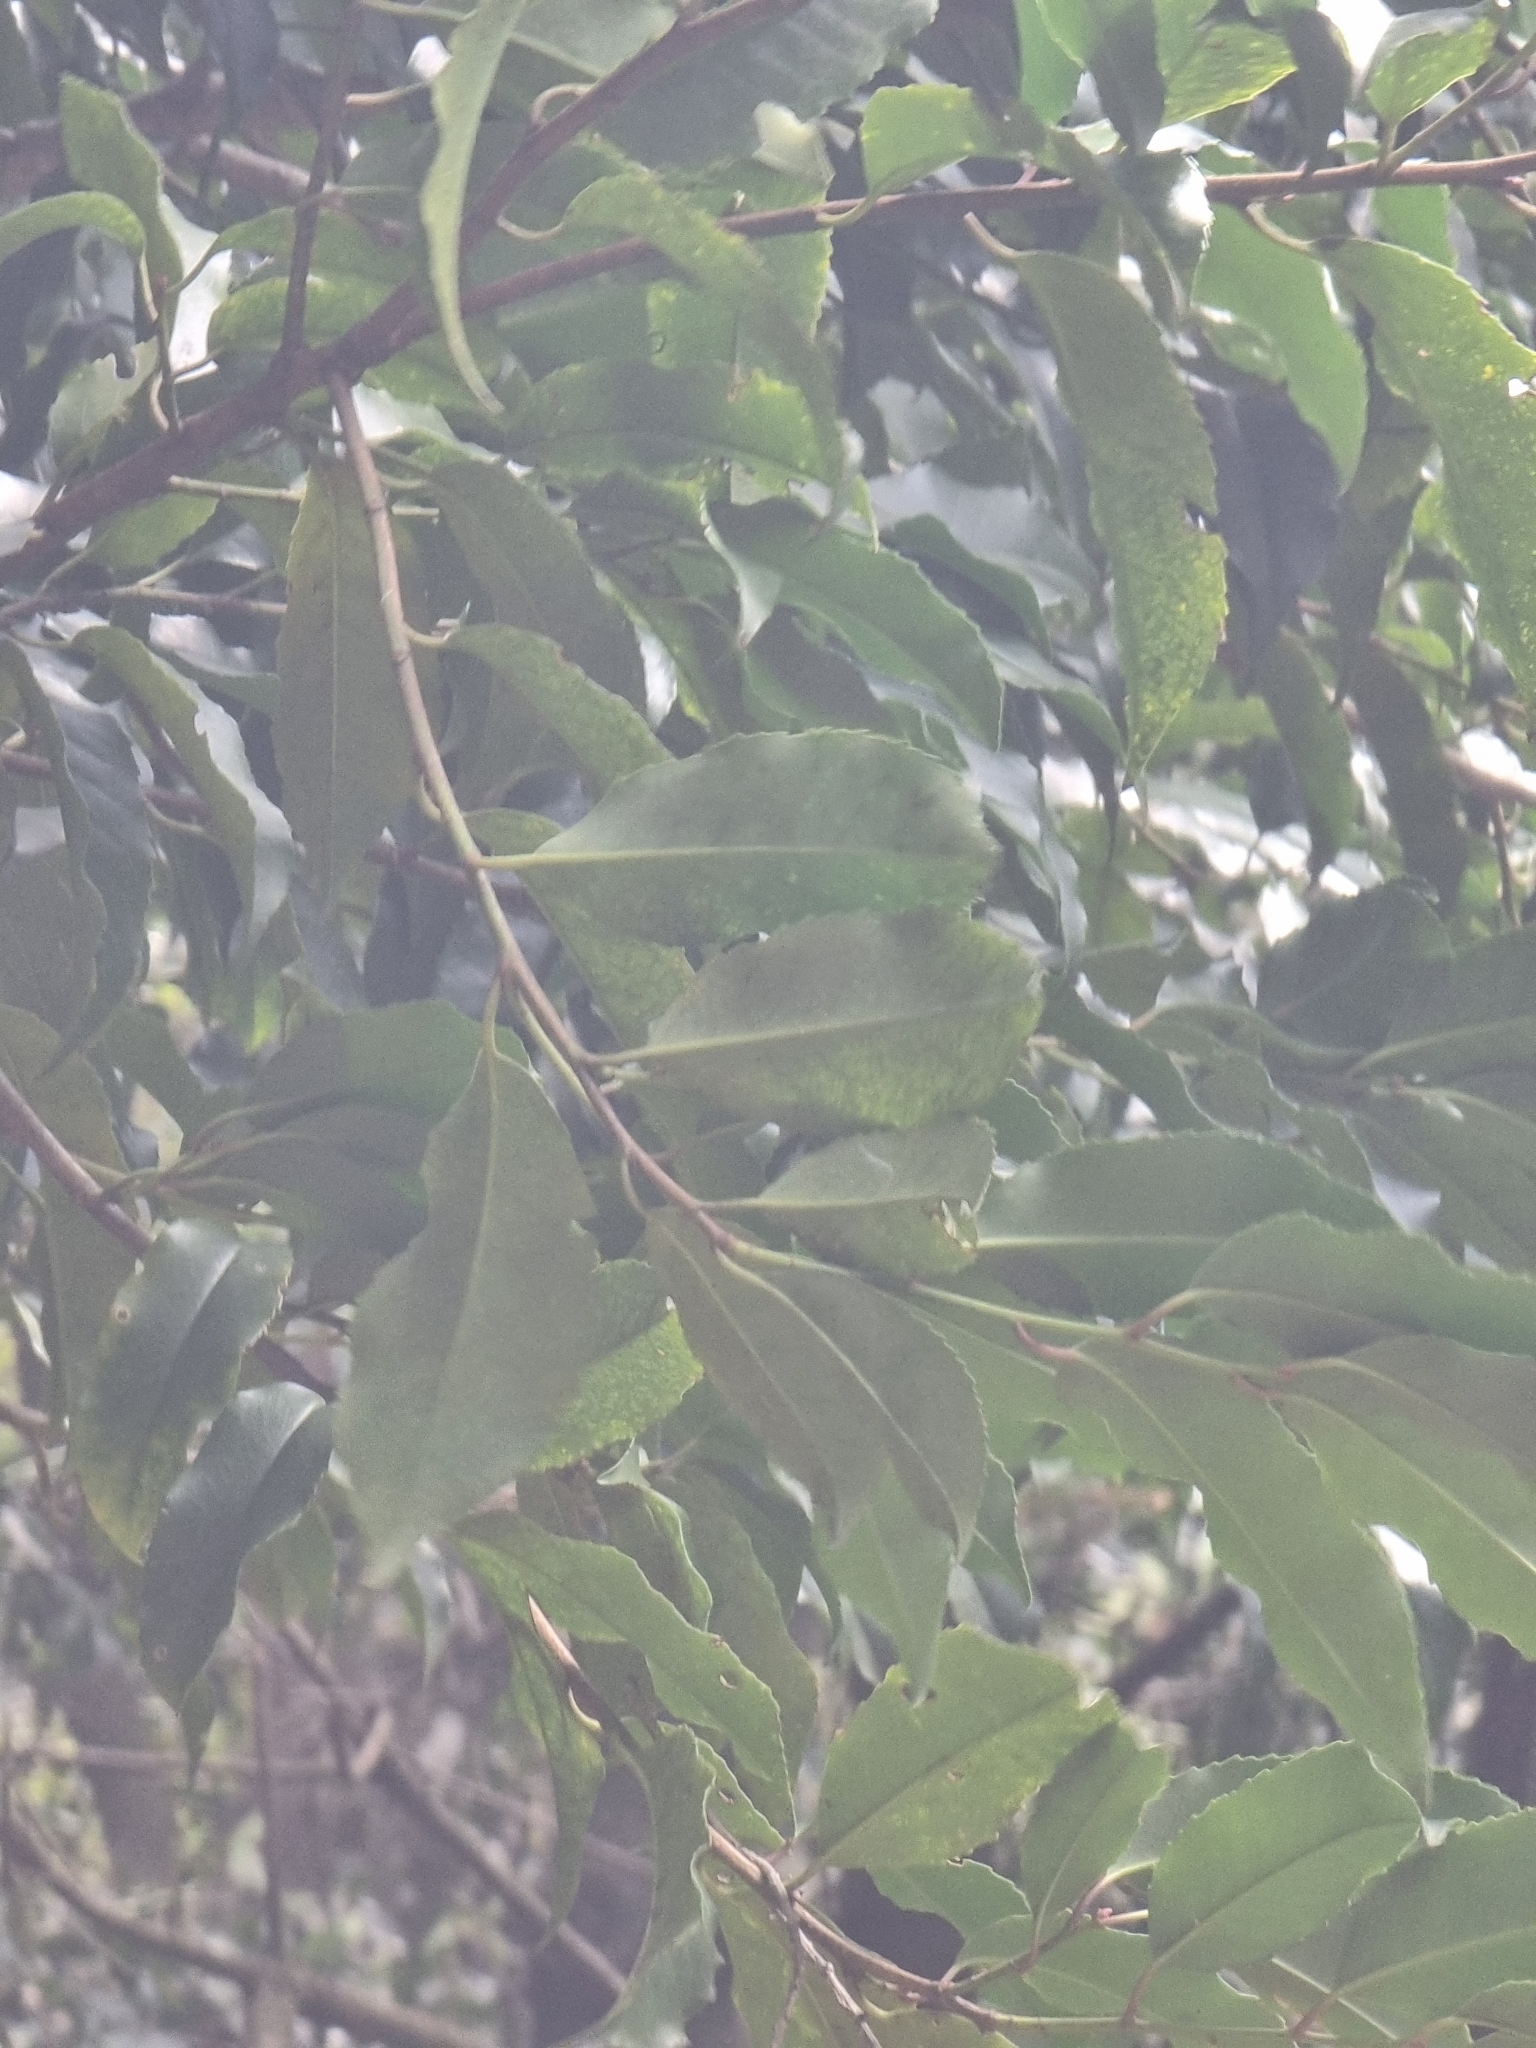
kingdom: Plantae
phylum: Tracheophyta
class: Magnoliopsida
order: Rosales
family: Rosaceae
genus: Prunus
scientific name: Prunus hixa
